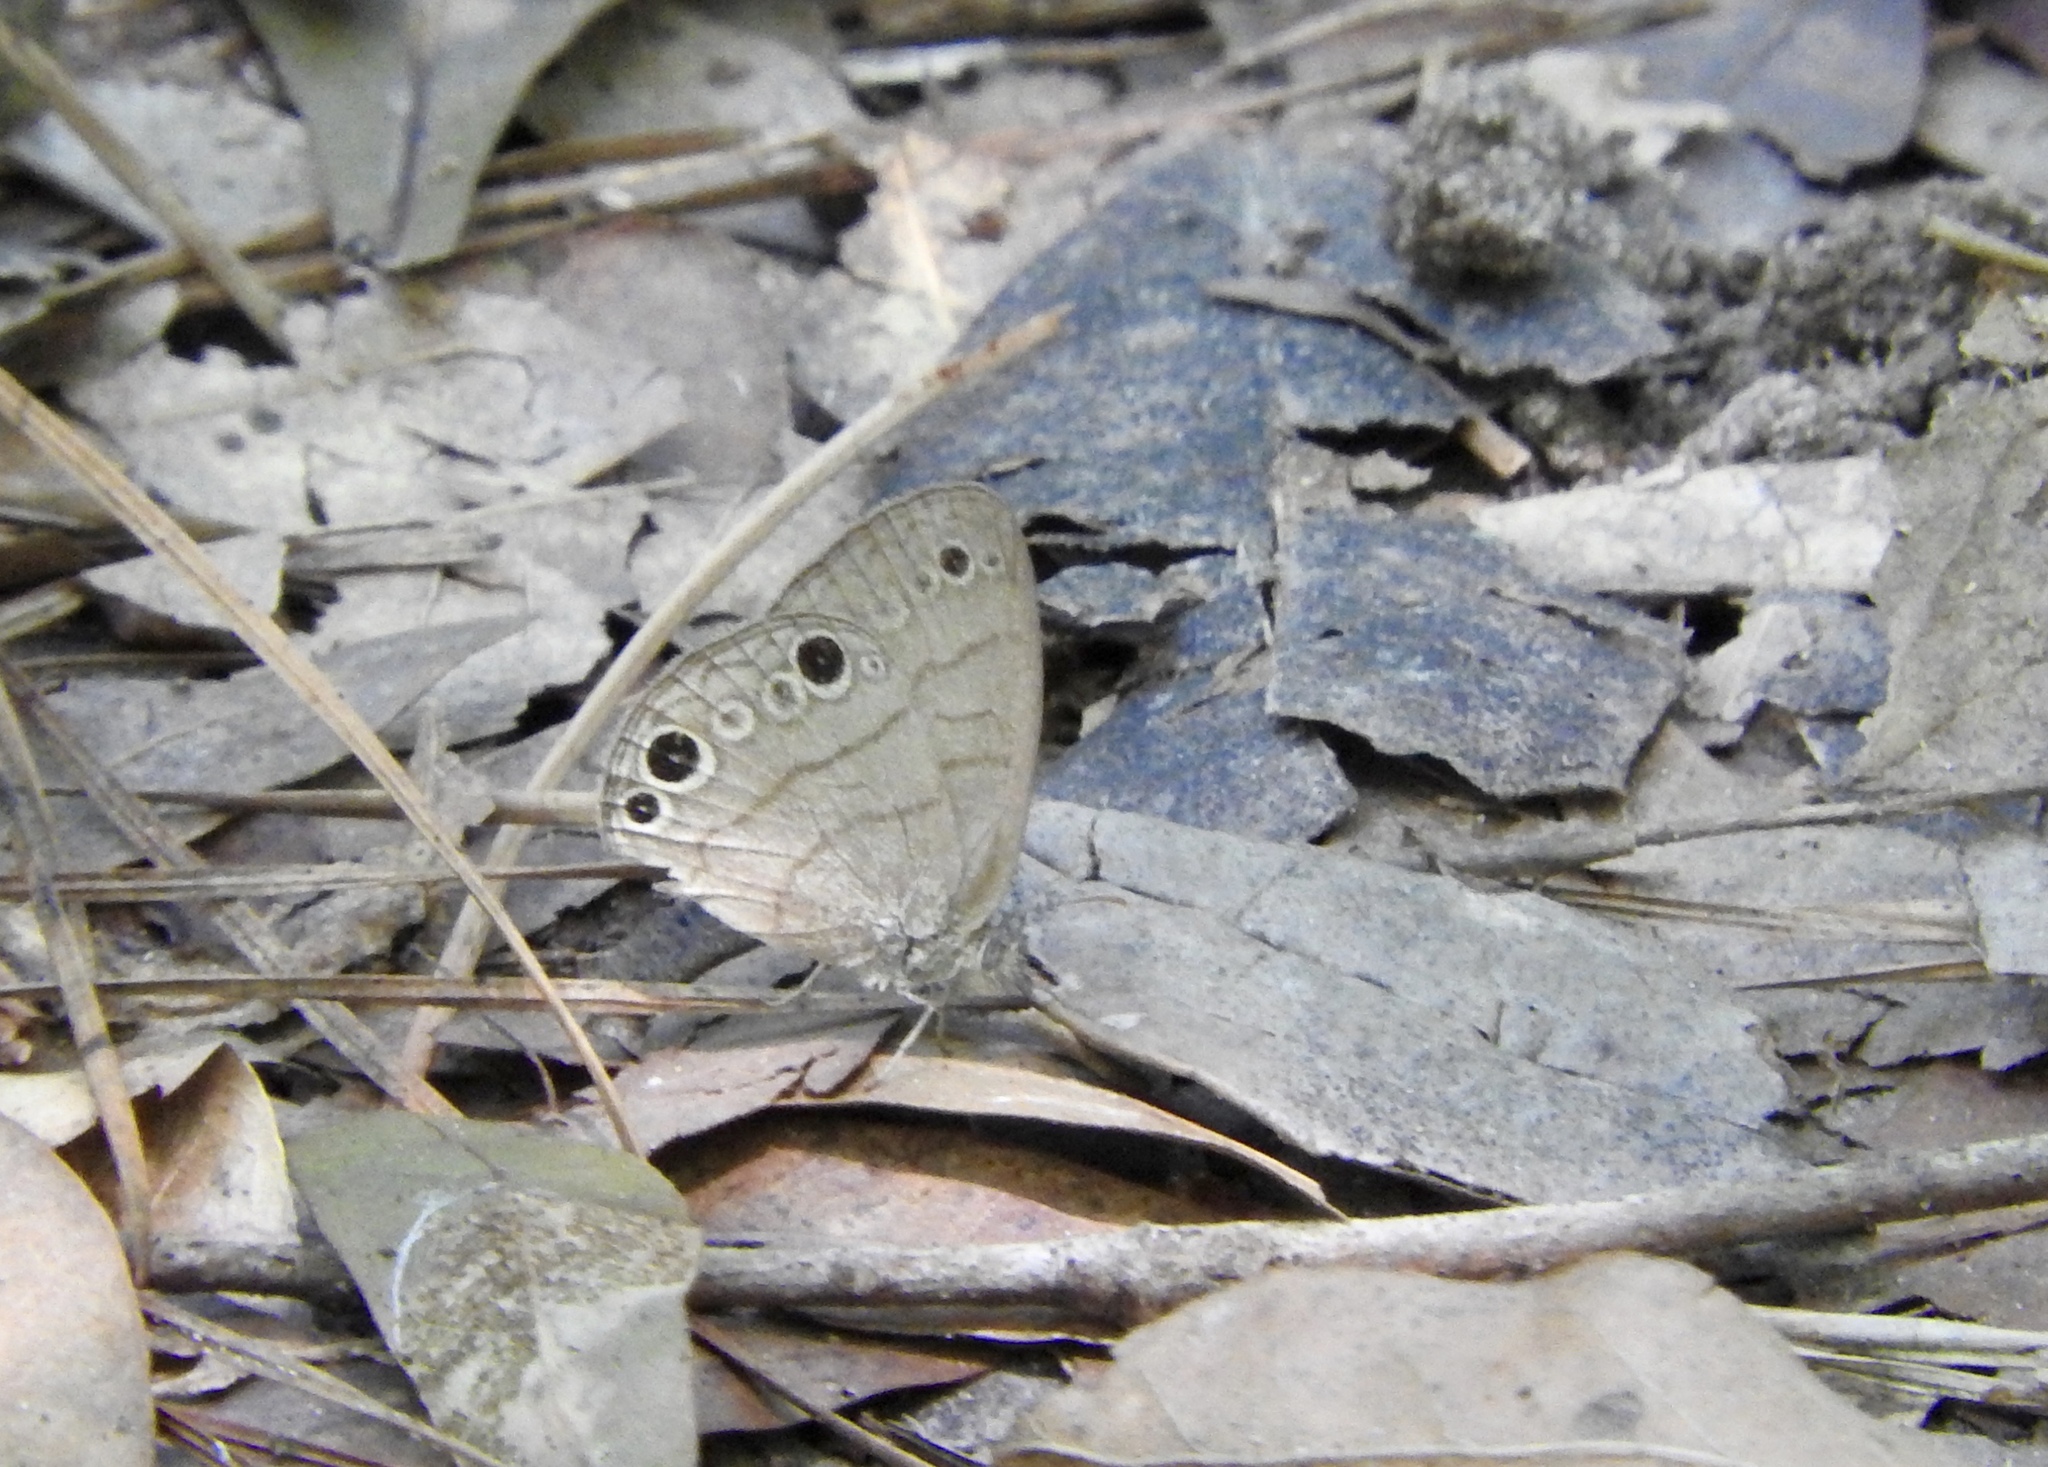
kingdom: Animalia
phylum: Arthropoda
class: Insecta
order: Lepidoptera
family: Nymphalidae
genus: Hermeuptychia
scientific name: Hermeuptychia intricata
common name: Intricate satyr
